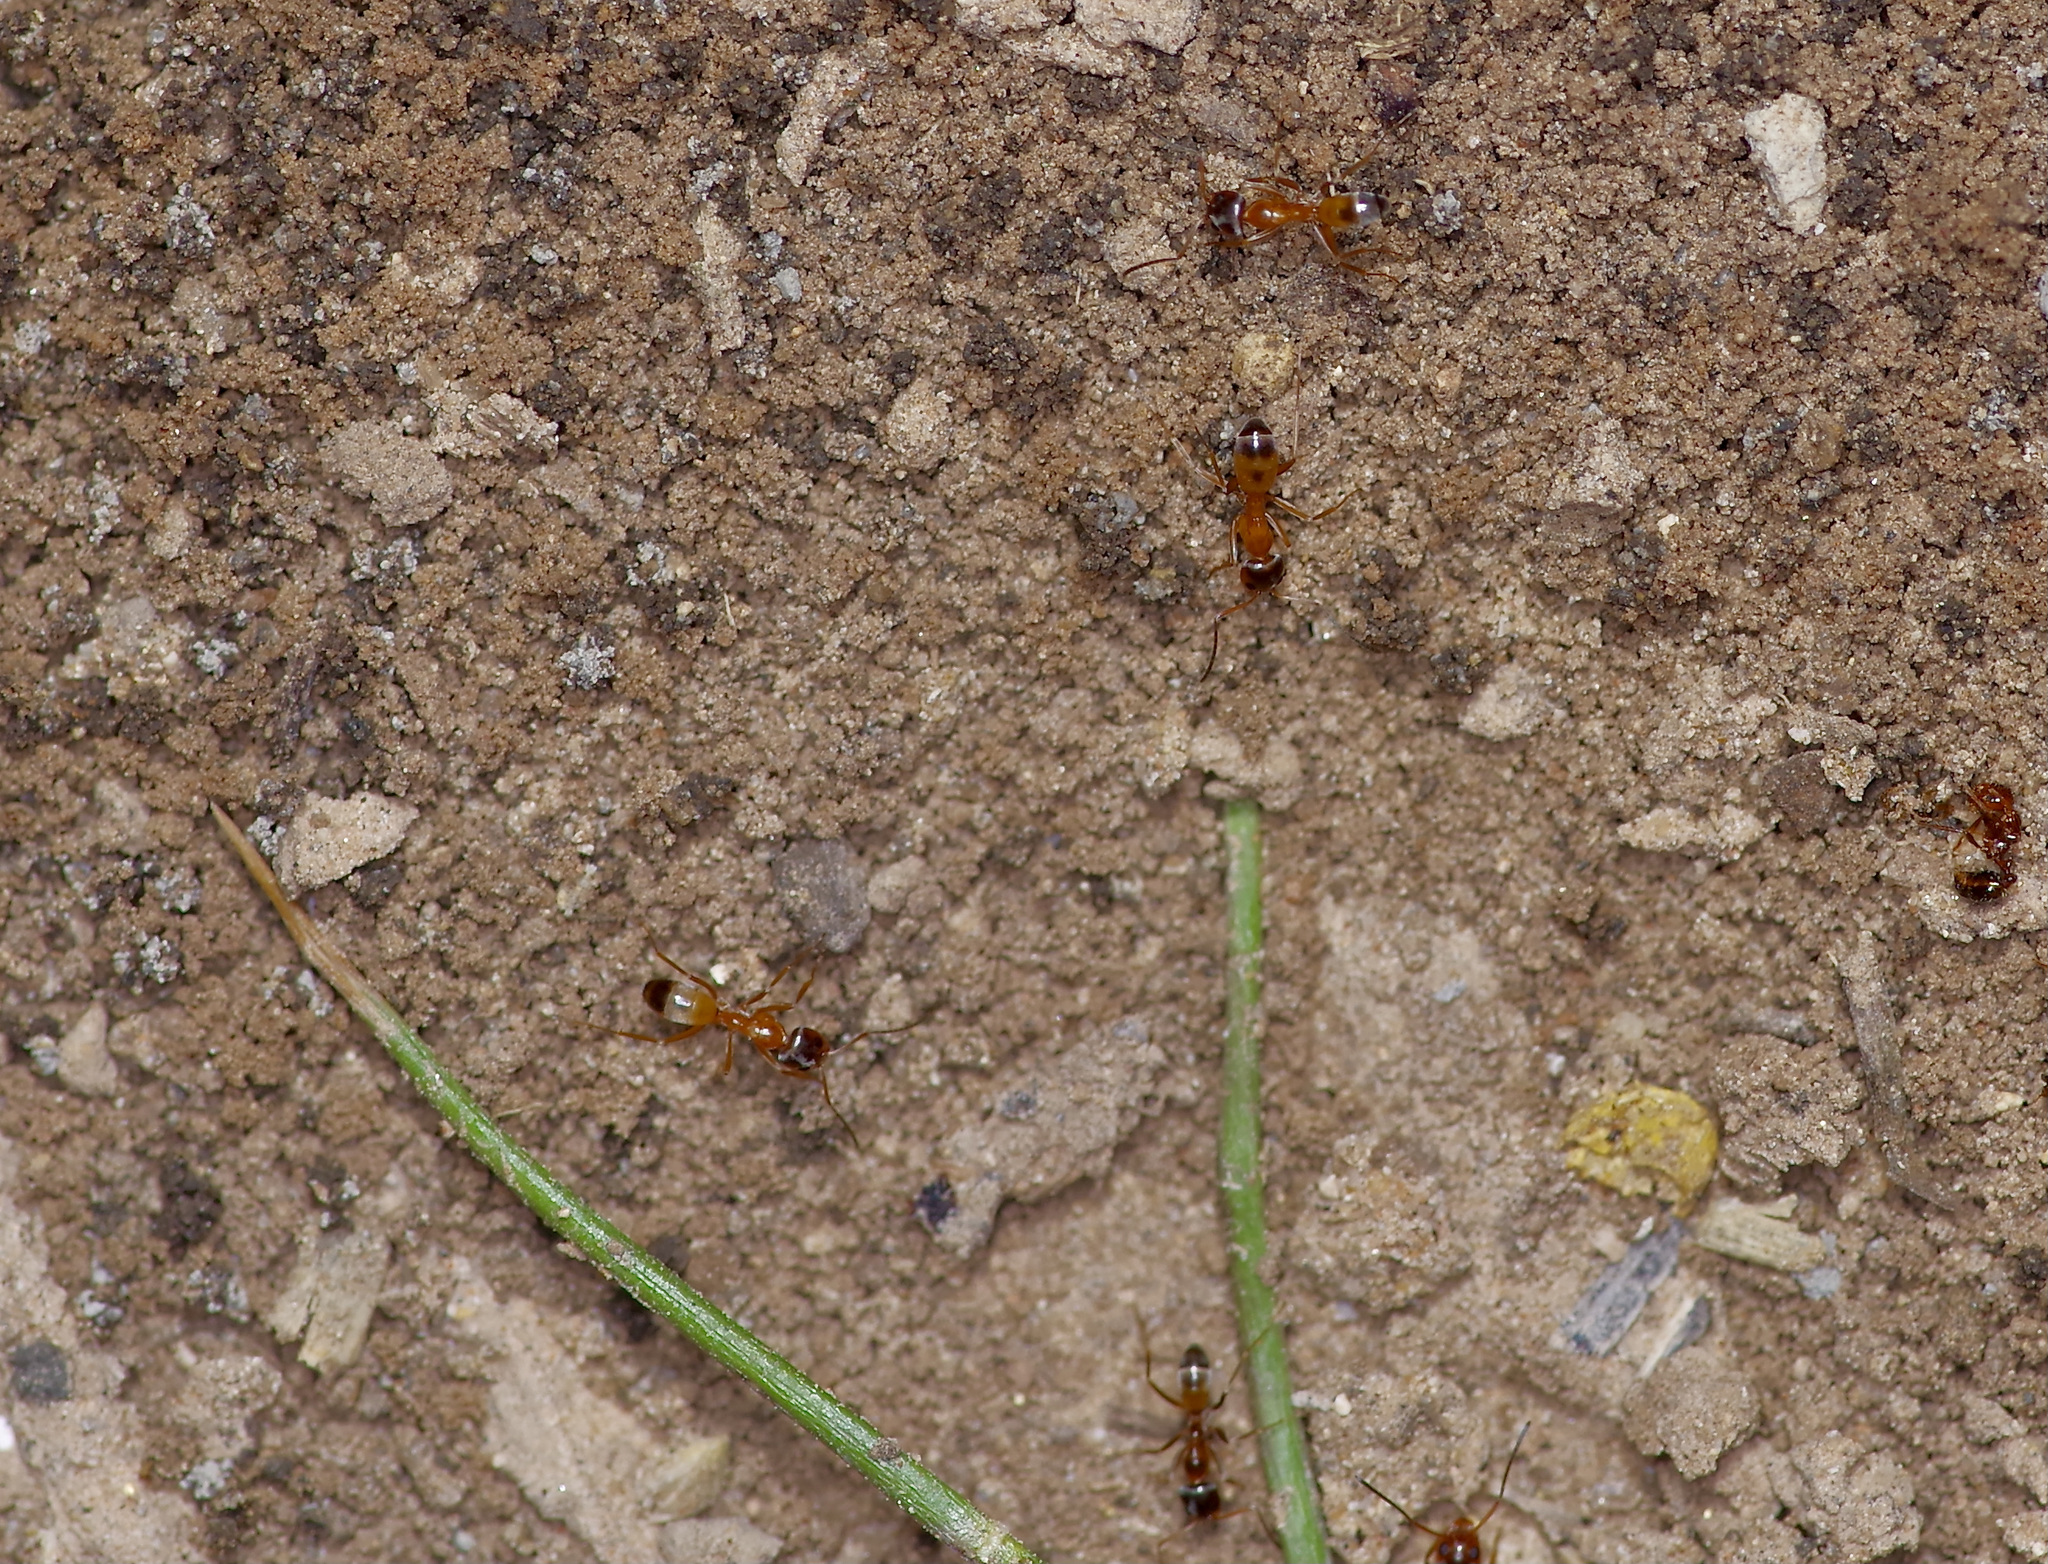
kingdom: Animalia
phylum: Arthropoda
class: Insecta
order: Hymenoptera
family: Formicidae
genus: Dorymyrmex
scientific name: Dorymyrmex flavus
